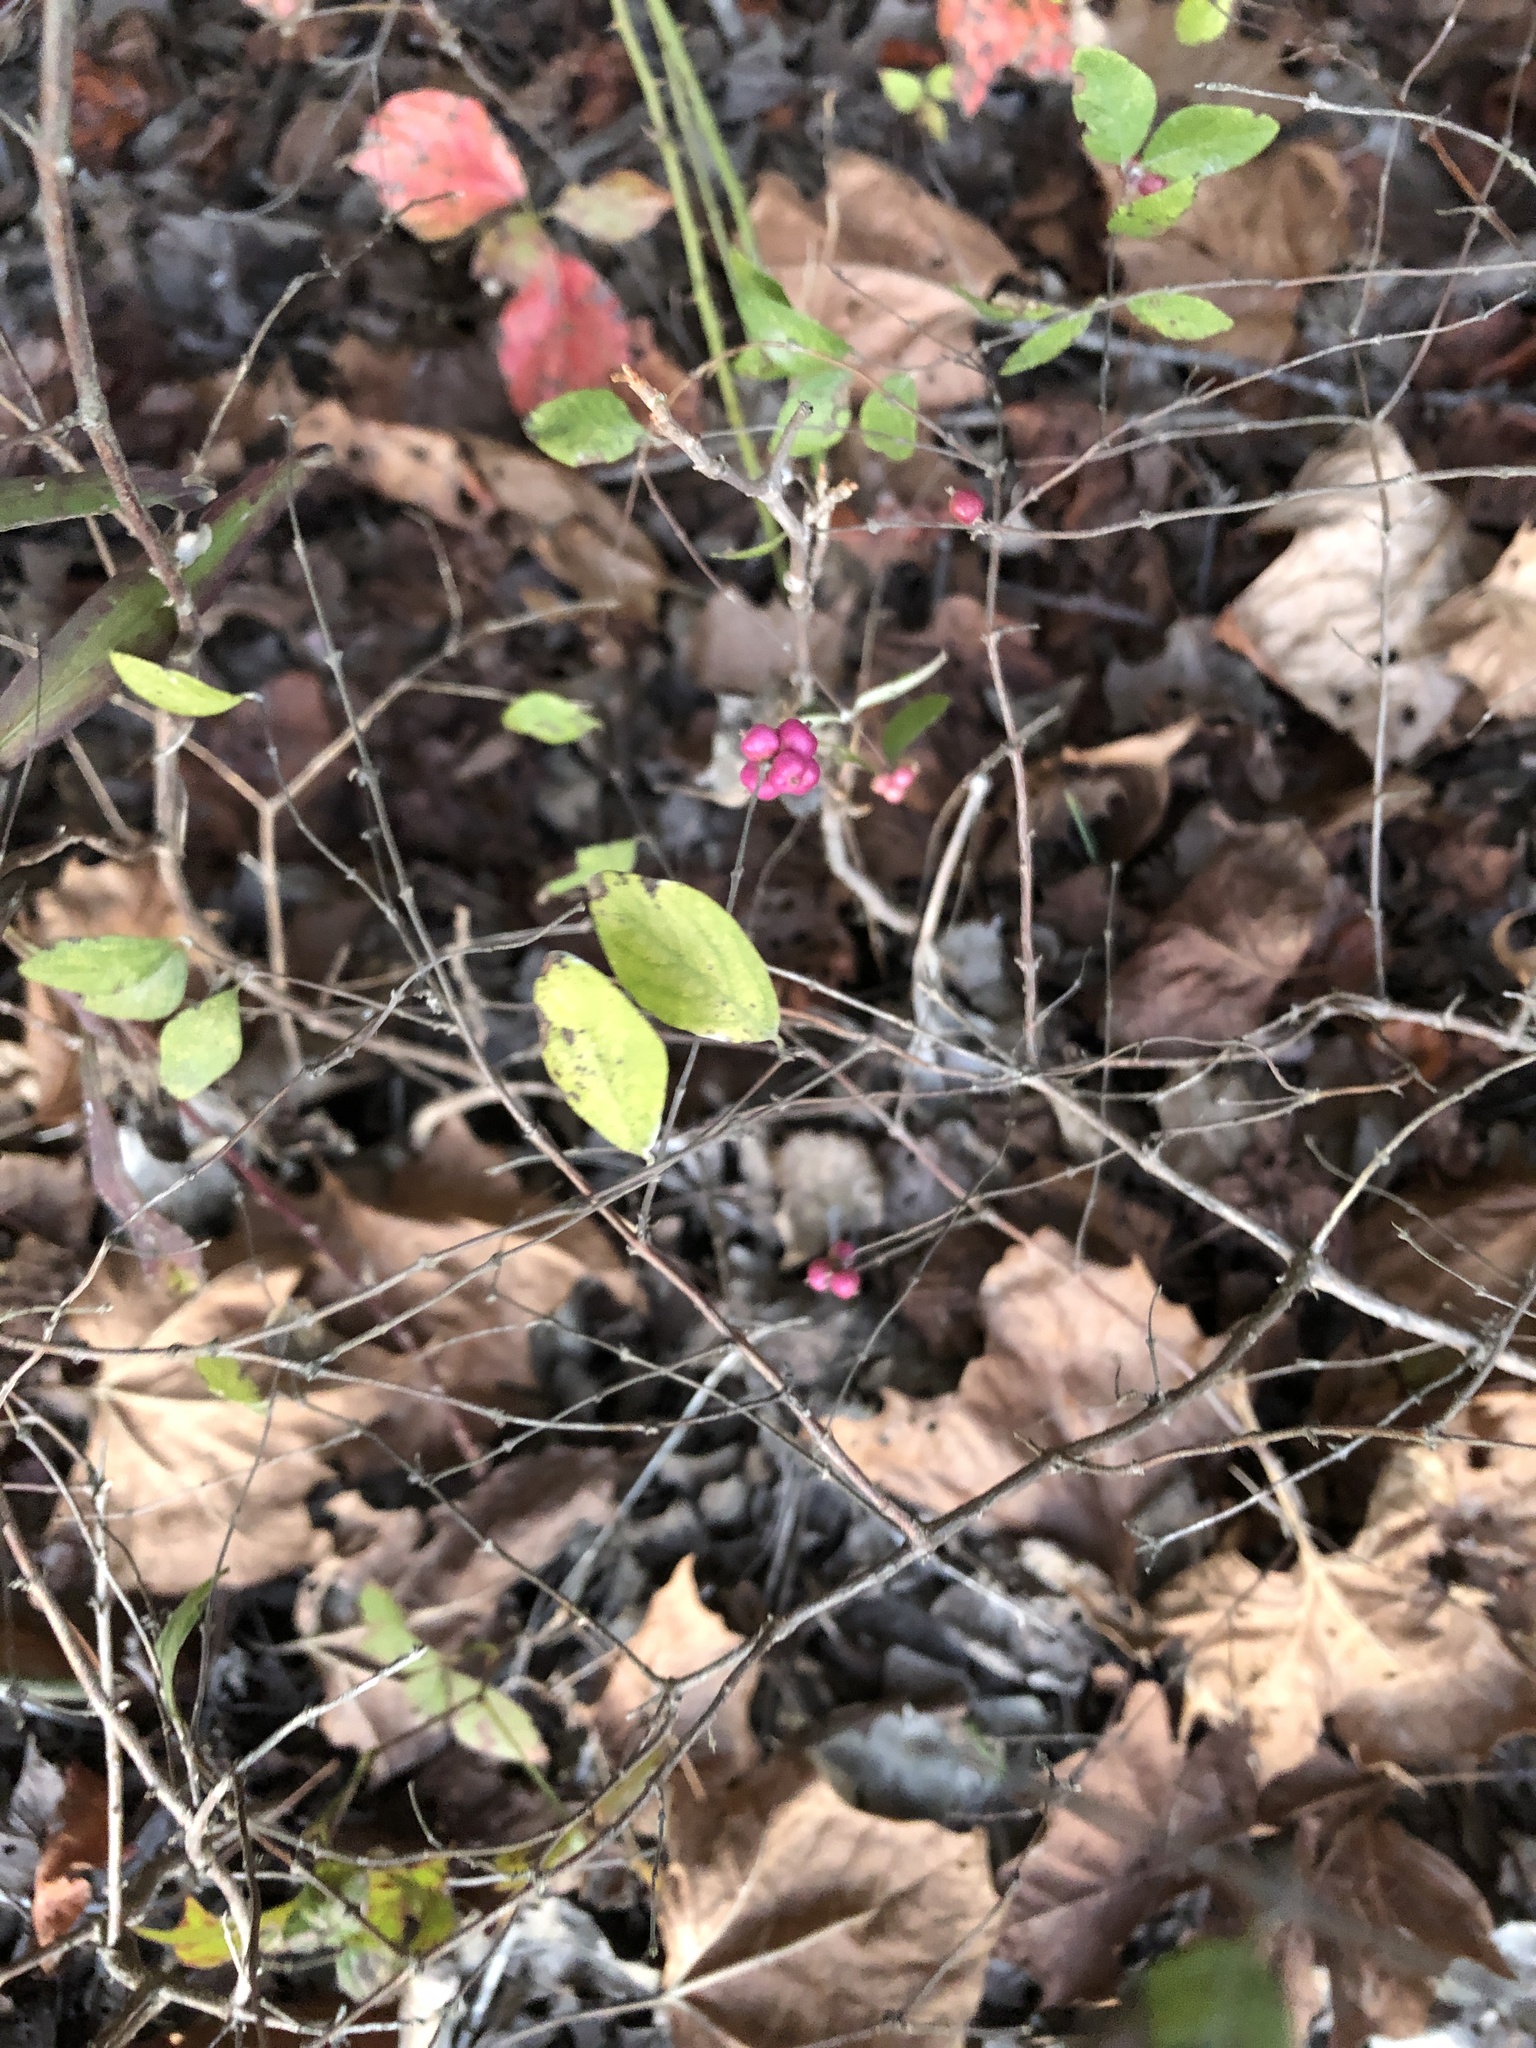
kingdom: Plantae
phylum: Tracheophyta
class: Magnoliopsida
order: Dipsacales
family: Caprifoliaceae
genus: Symphoricarpos
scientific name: Symphoricarpos orbiculatus
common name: Coralberry
